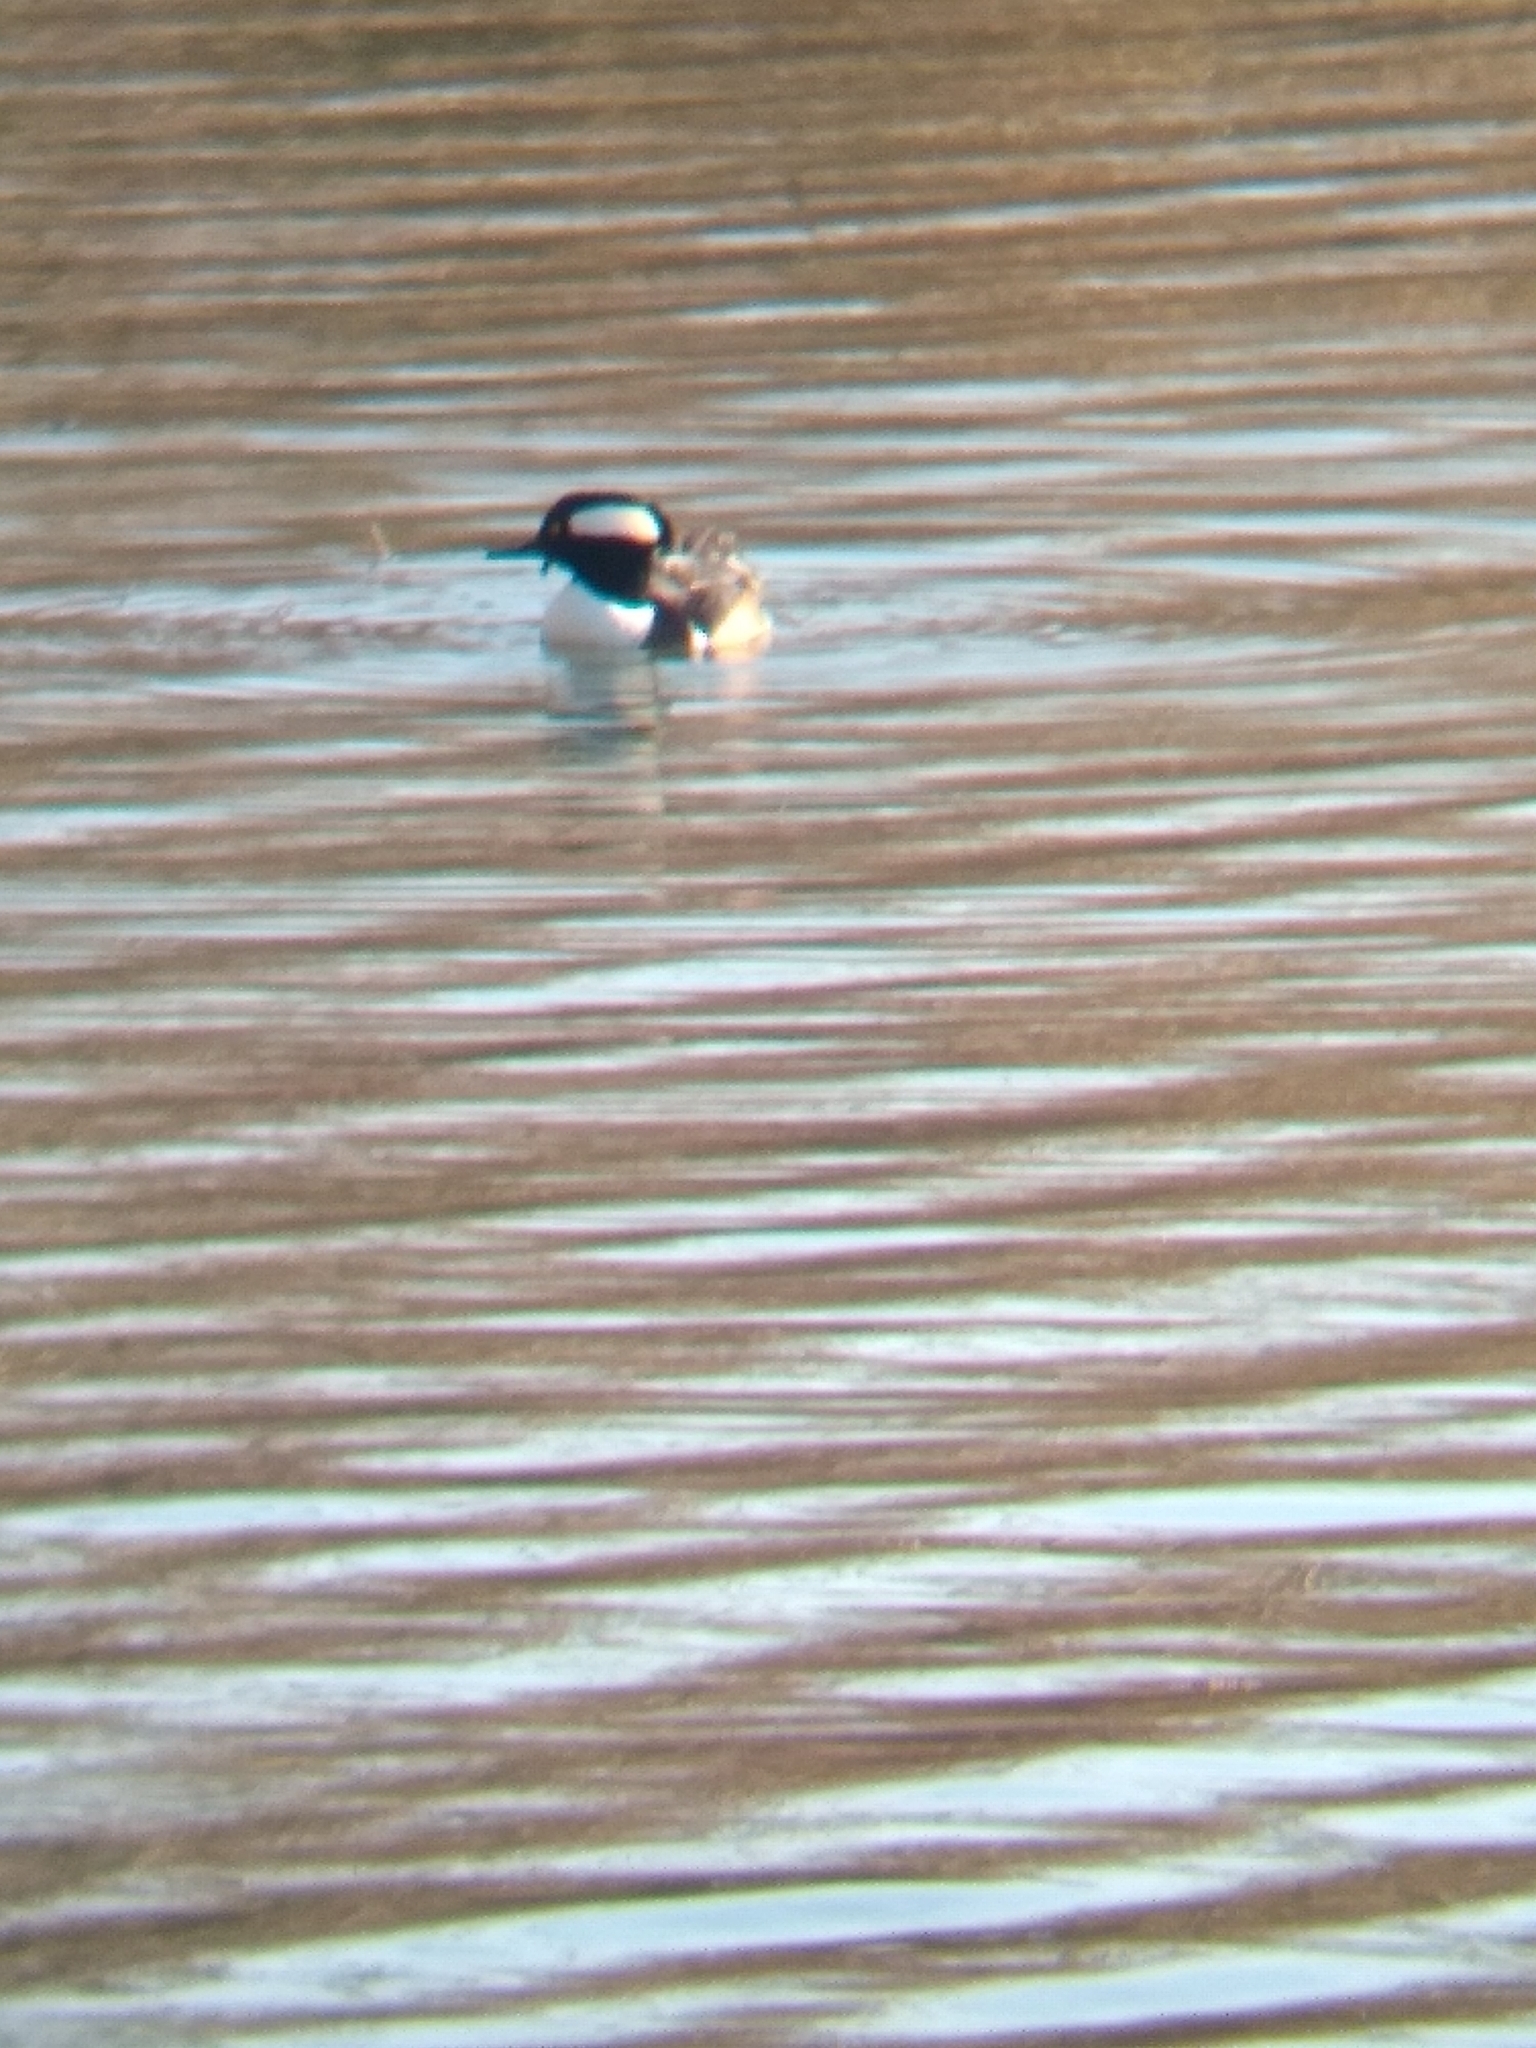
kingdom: Animalia
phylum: Chordata
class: Aves
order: Anseriformes
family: Anatidae
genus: Lophodytes
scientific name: Lophodytes cucullatus
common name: Hooded merganser
